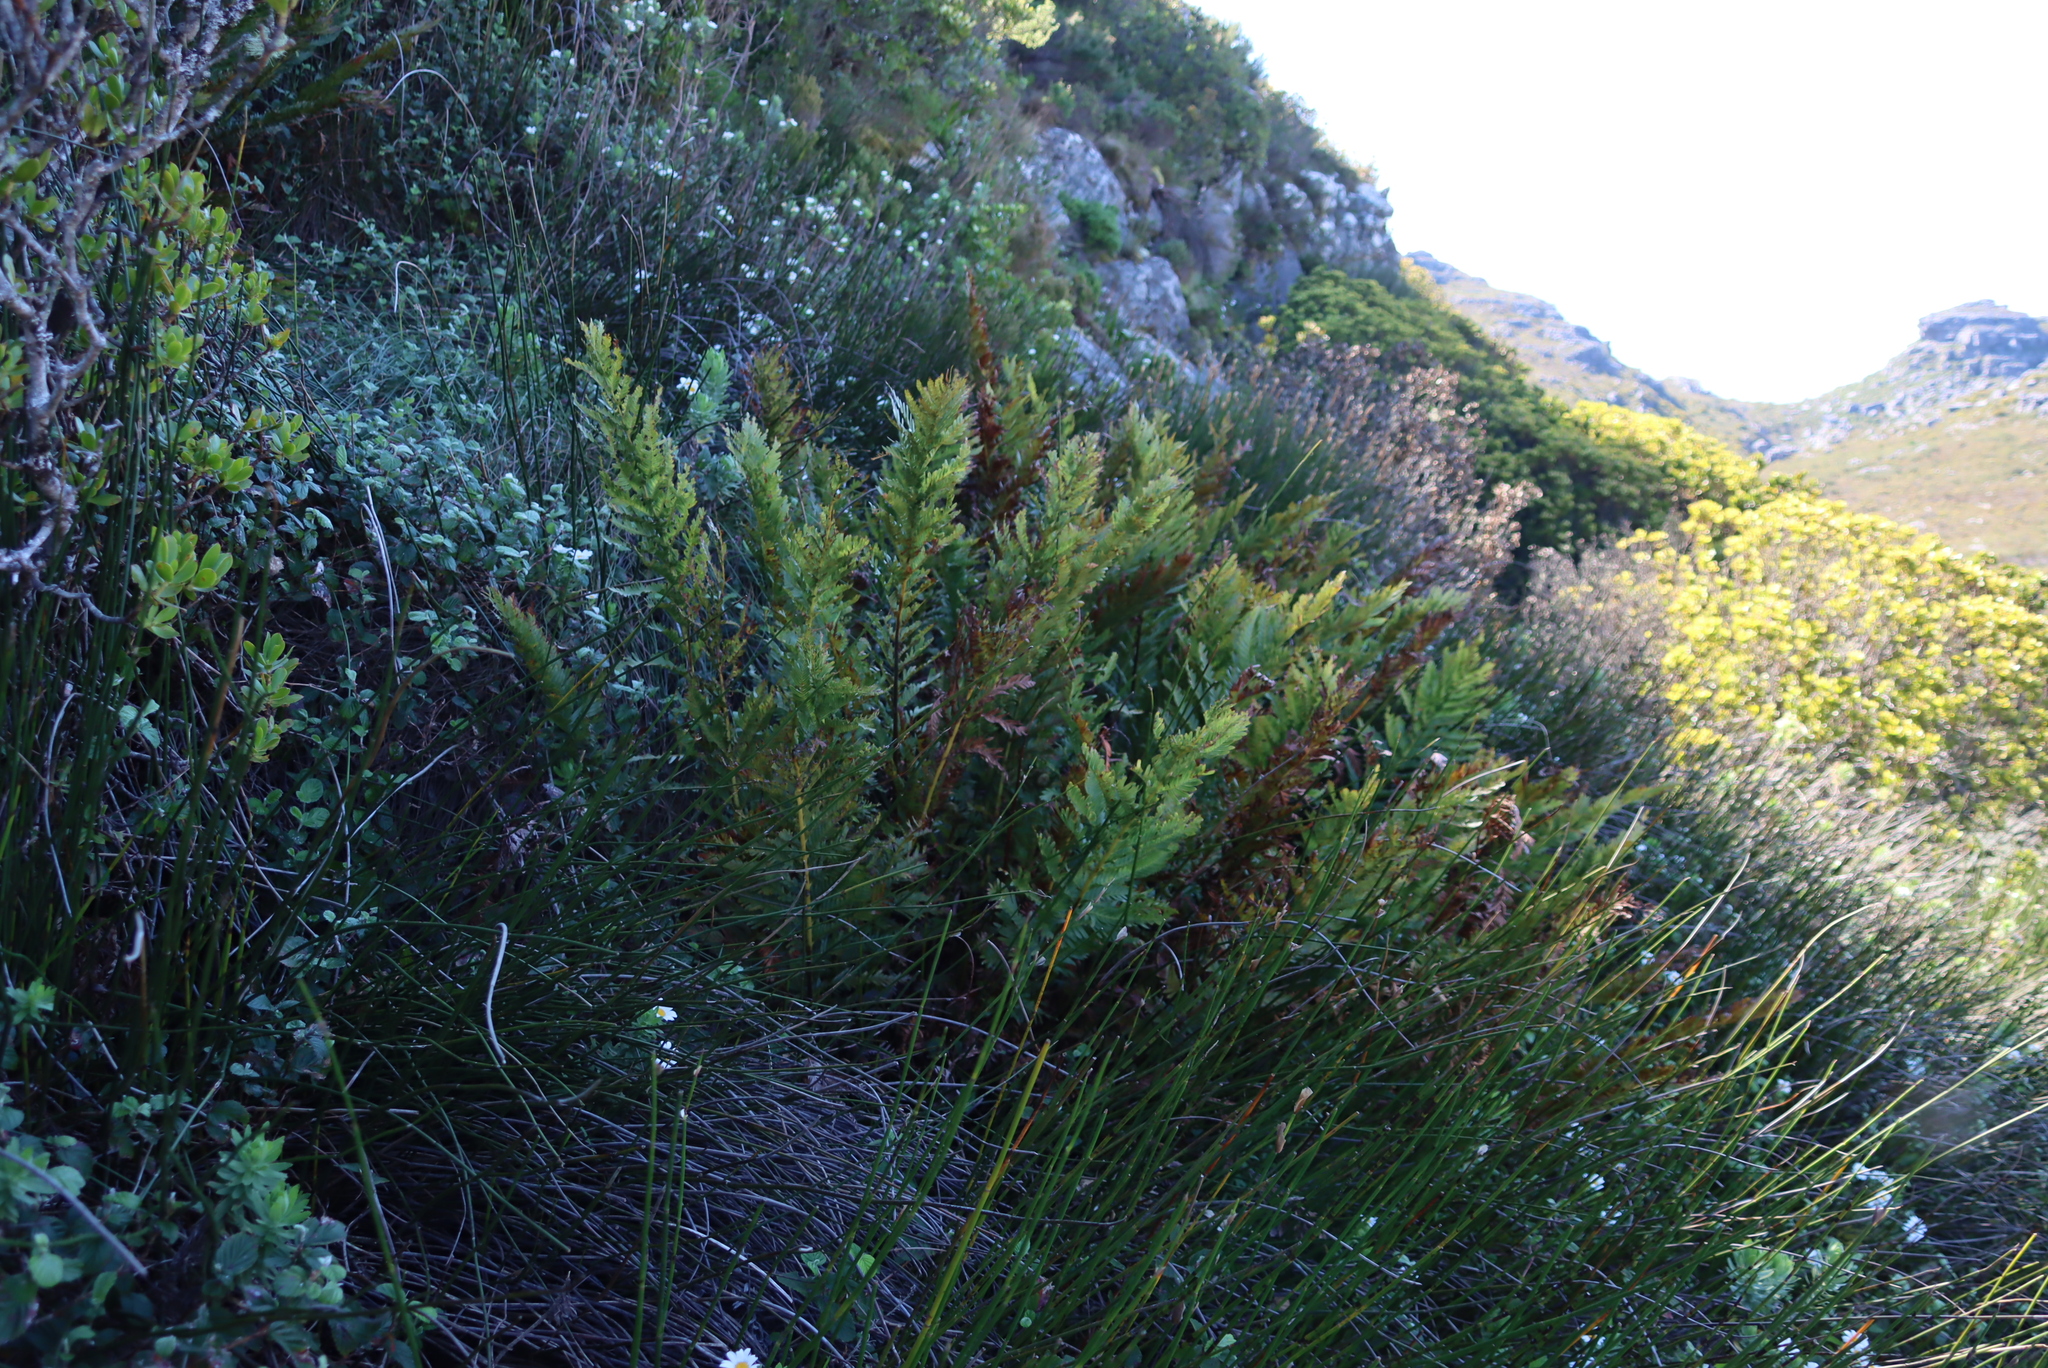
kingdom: Plantae
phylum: Tracheophyta
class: Polypodiopsida
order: Osmundales
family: Osmundaceae
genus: Todea
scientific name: Todea barbara
